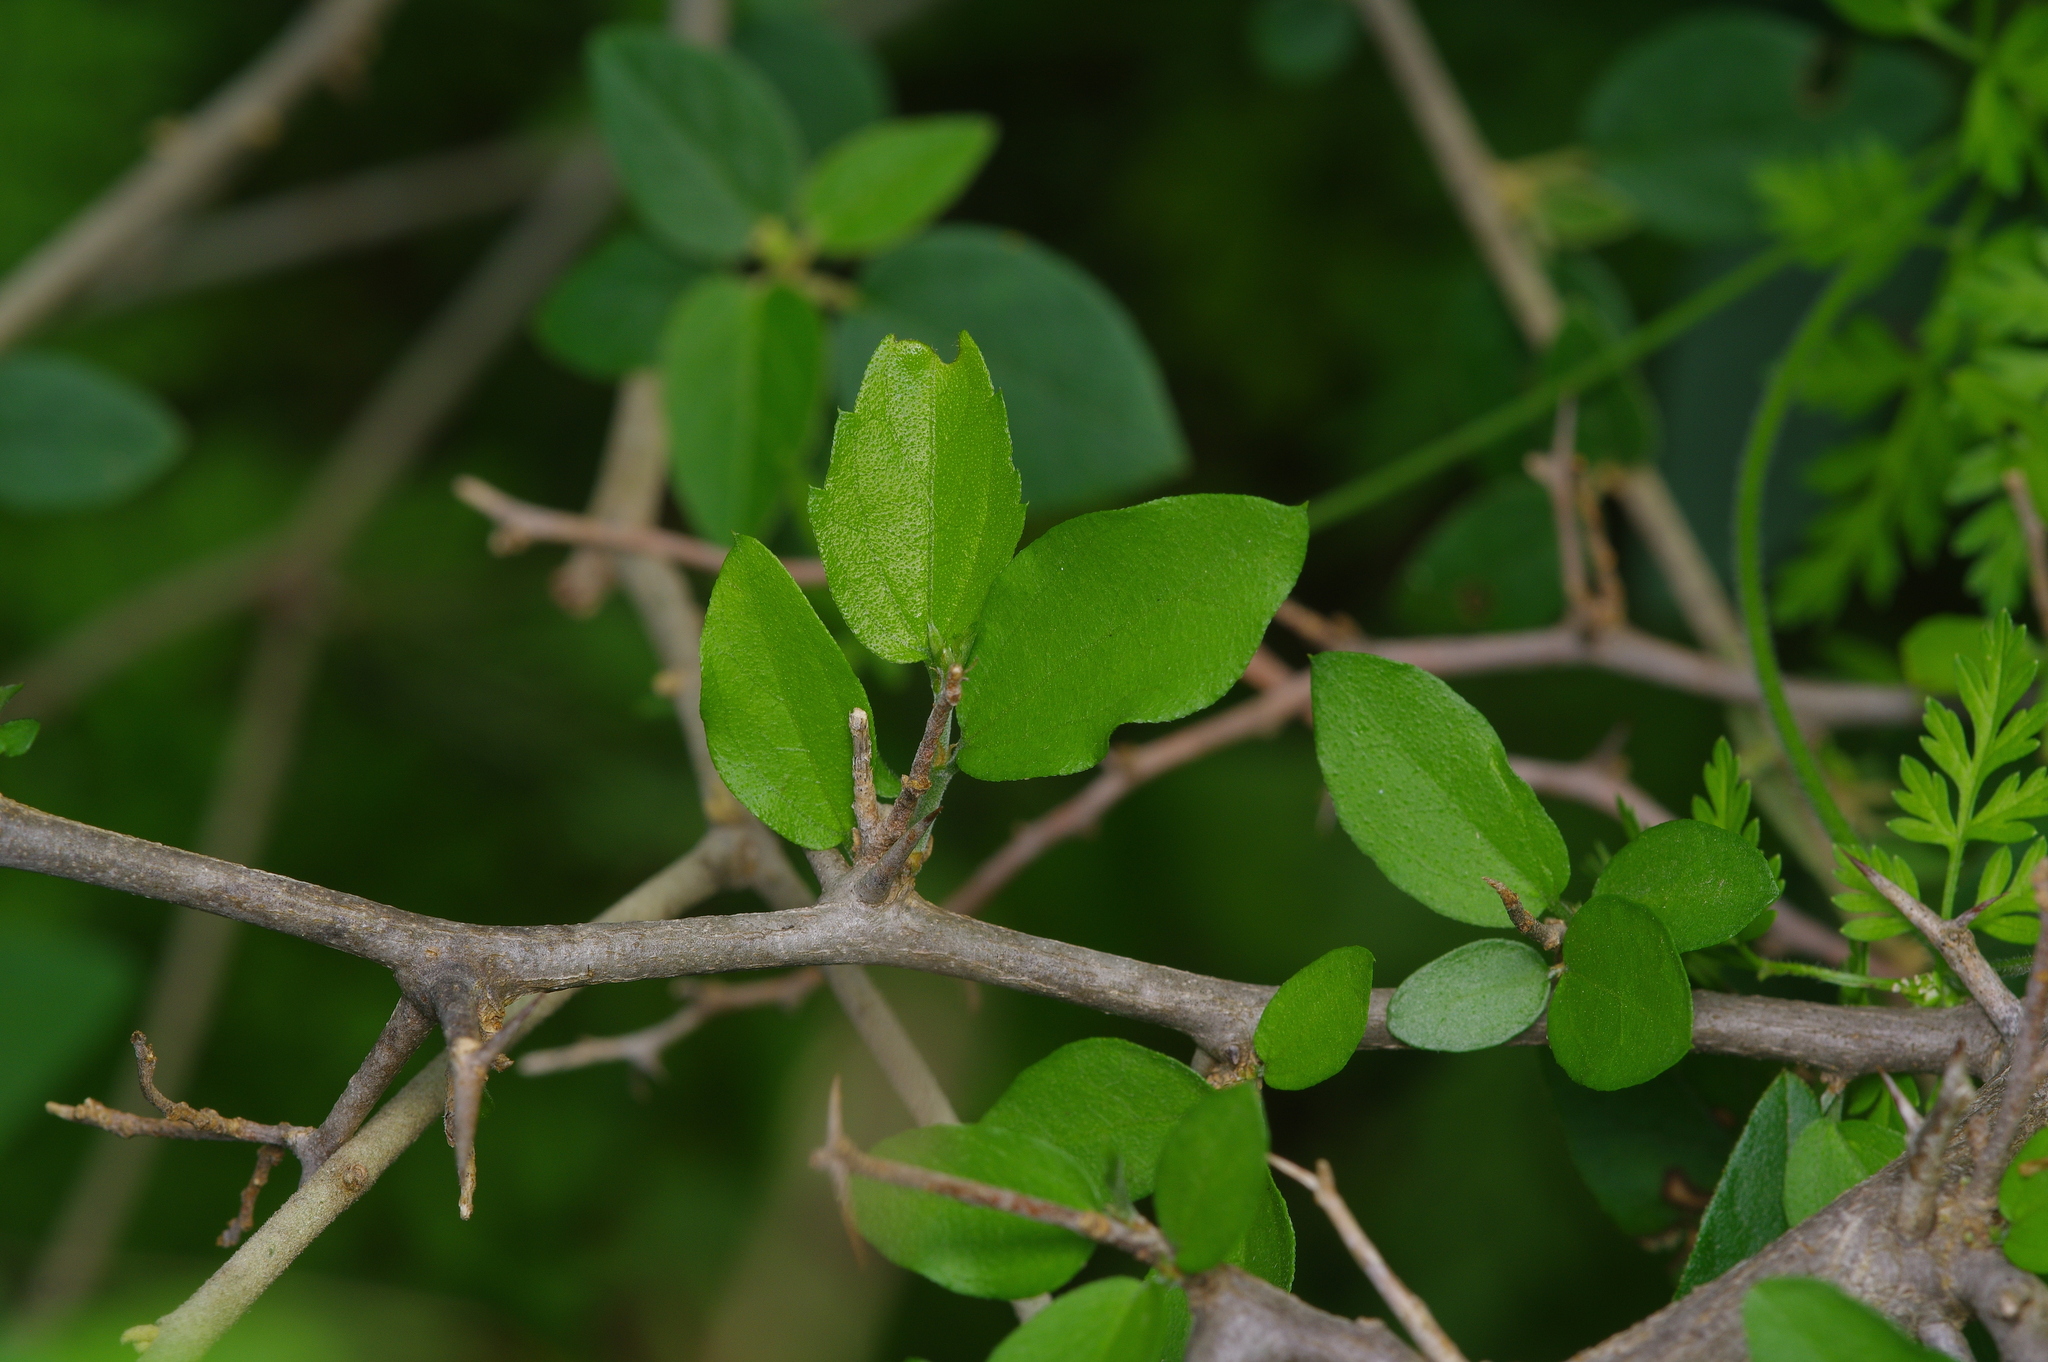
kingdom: Plantae
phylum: Tracheophyta
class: Magnoliopsida
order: Rosales
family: Cannabaceae
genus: Celtis
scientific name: Celtis pallida
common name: Desert hackberry
